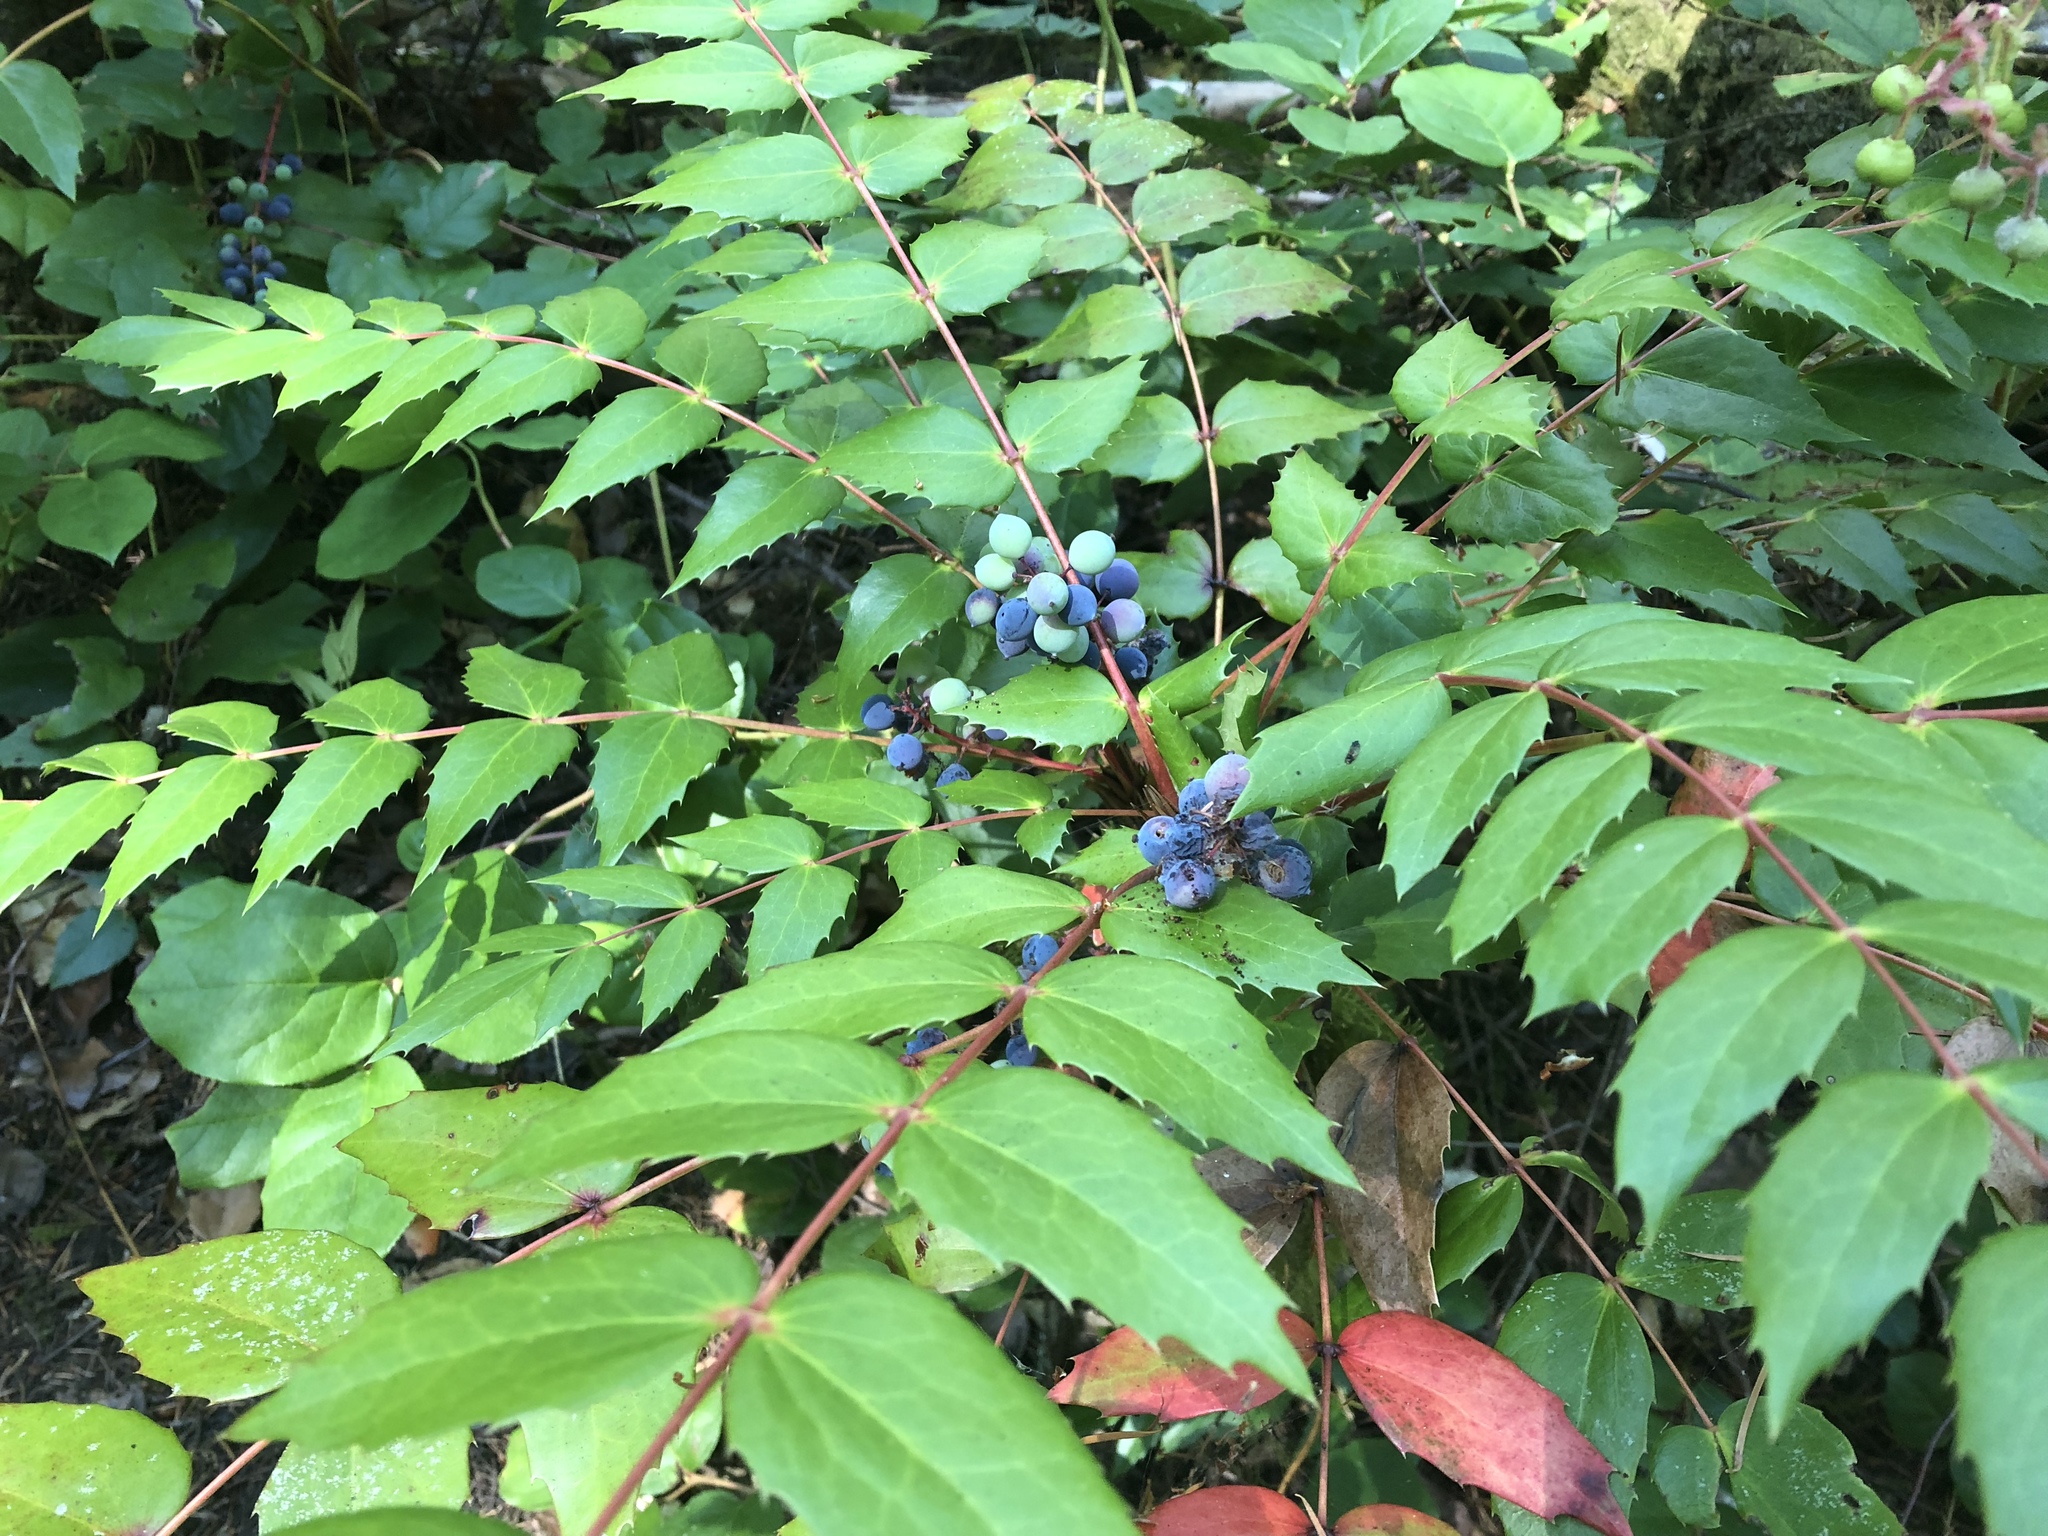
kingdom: Plantae
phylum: Tracheophyta
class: Magnoliopsida
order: Ranunculales
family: Berberidaceae
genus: Mahonia
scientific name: Mahonia nervosa
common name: Cascade oregon-grape
